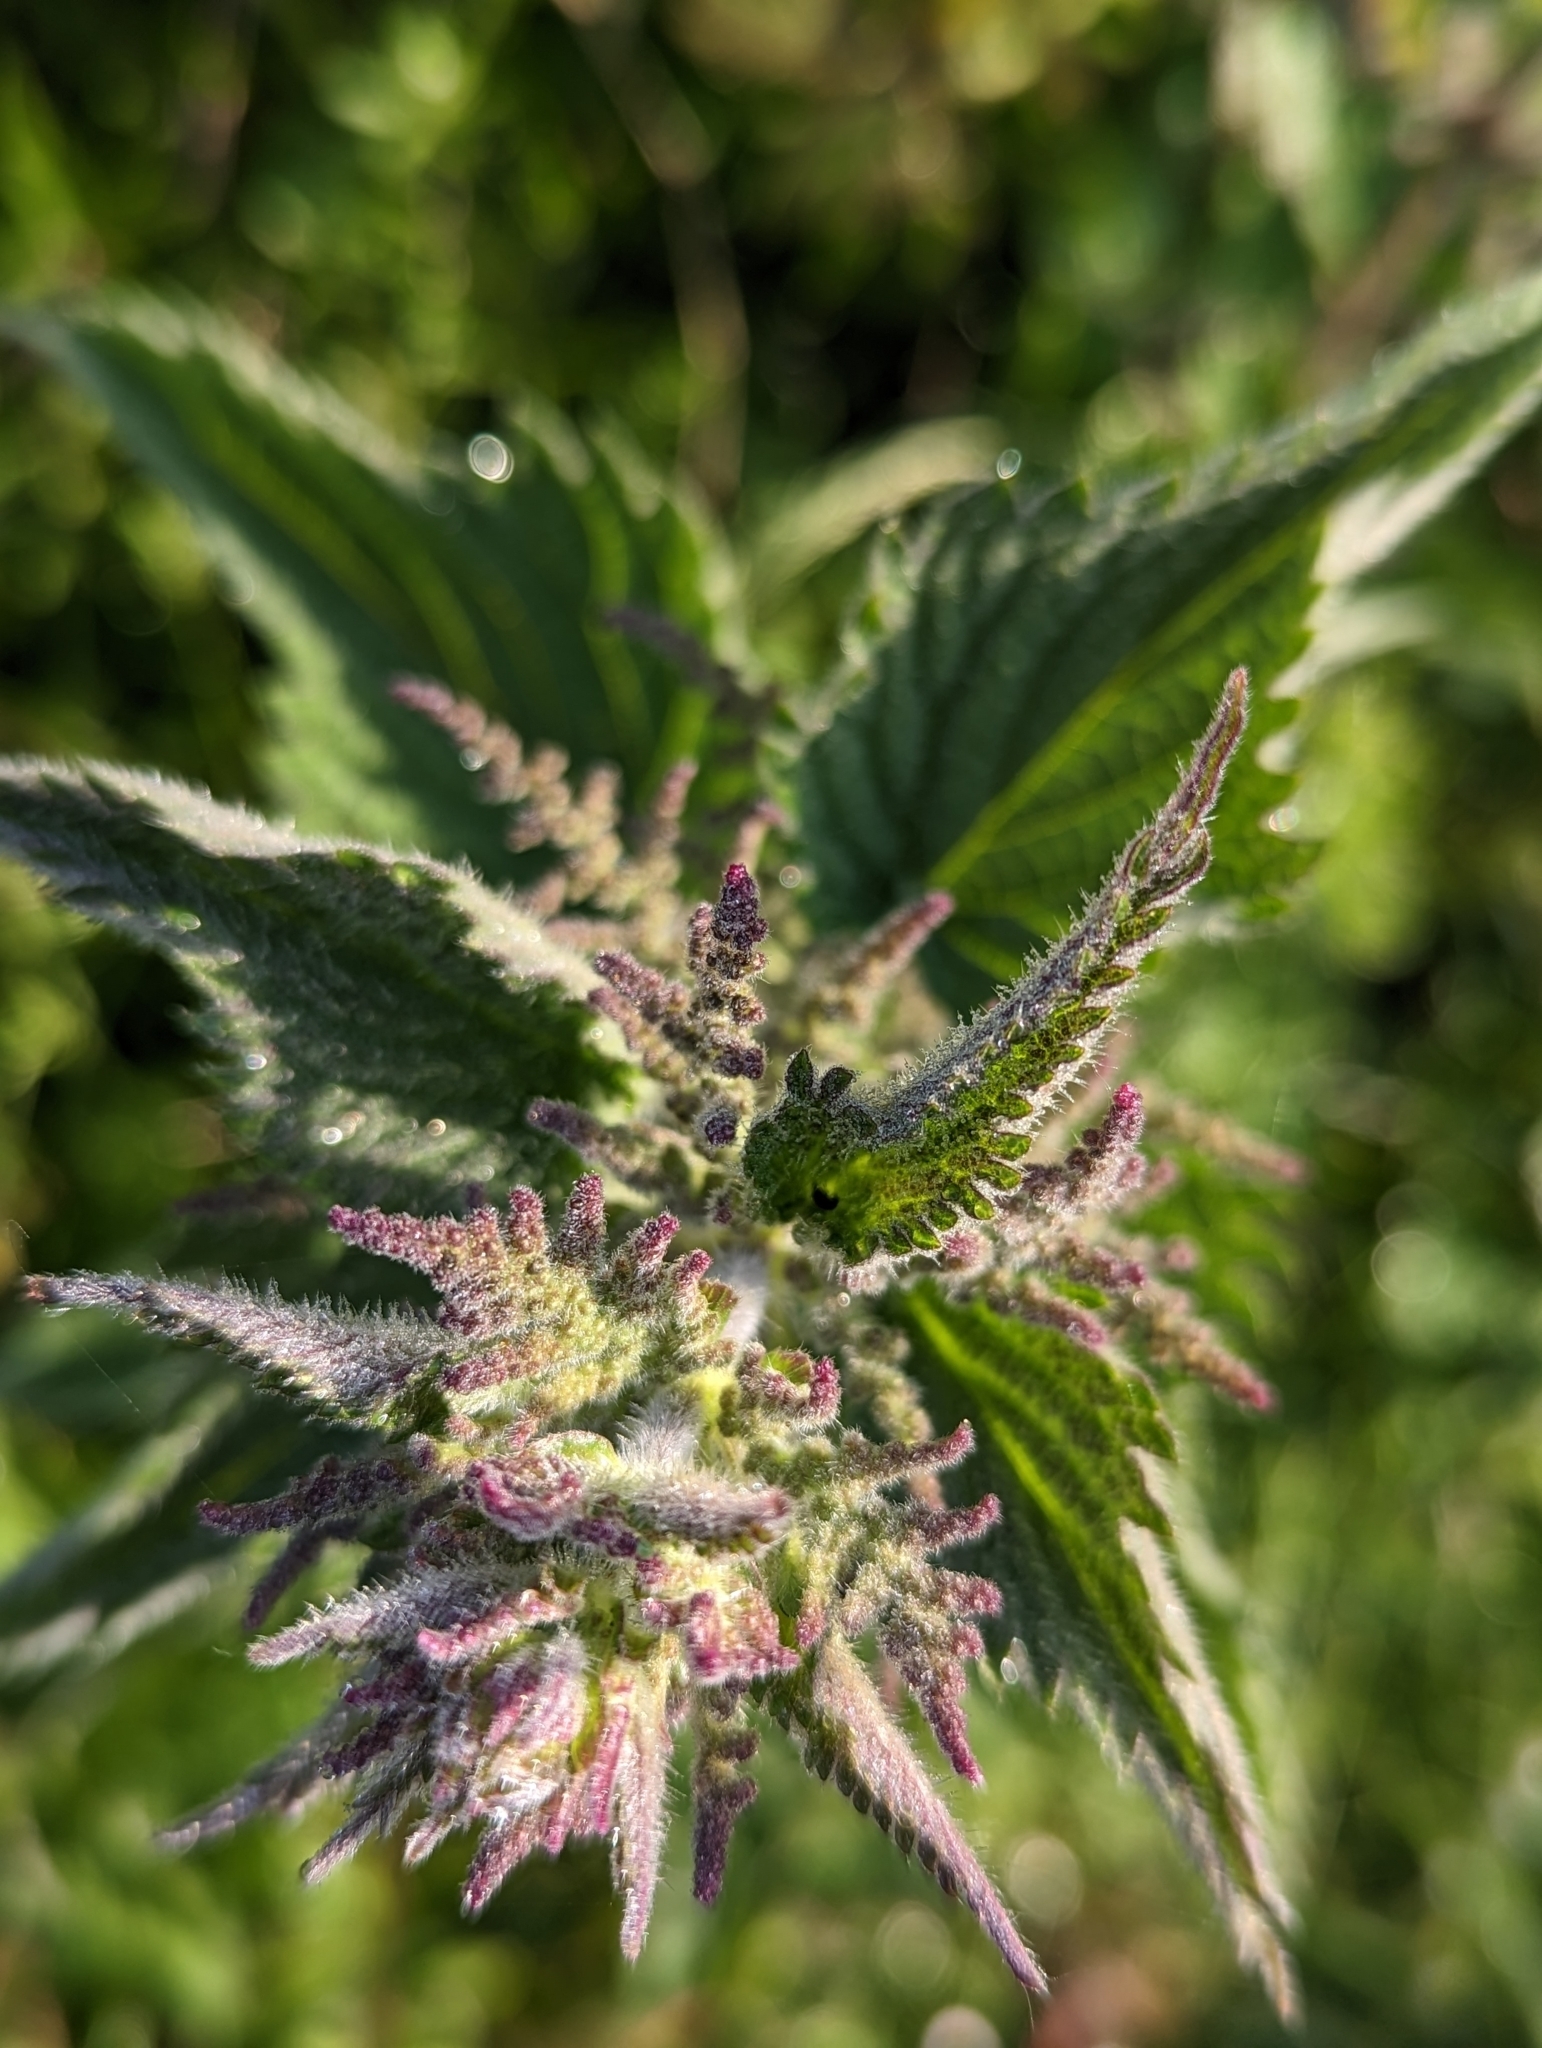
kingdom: Plantae
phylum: Tracheophyta
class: Magnoliopsida
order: Rosales
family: Urticaceae
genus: Urtica
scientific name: Urtica dioica
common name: Common nettle
